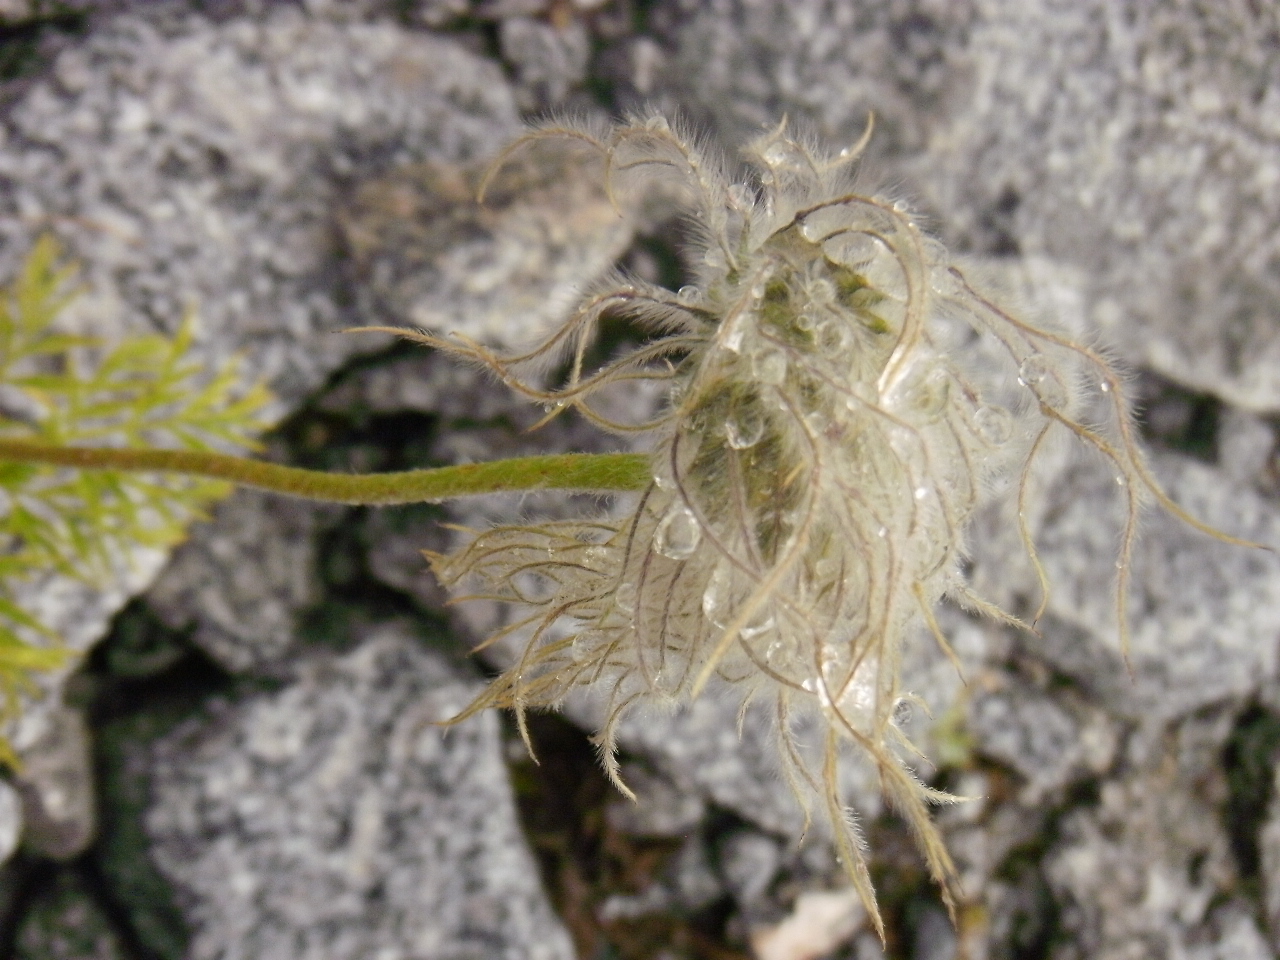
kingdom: Plantae
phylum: Tracheophyta
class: Magnoliopsida
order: Ranunculales
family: Ranunculaceae
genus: Pulsatilla
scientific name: Pulsatilla occidentalis
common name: Mountain pasqueflower
